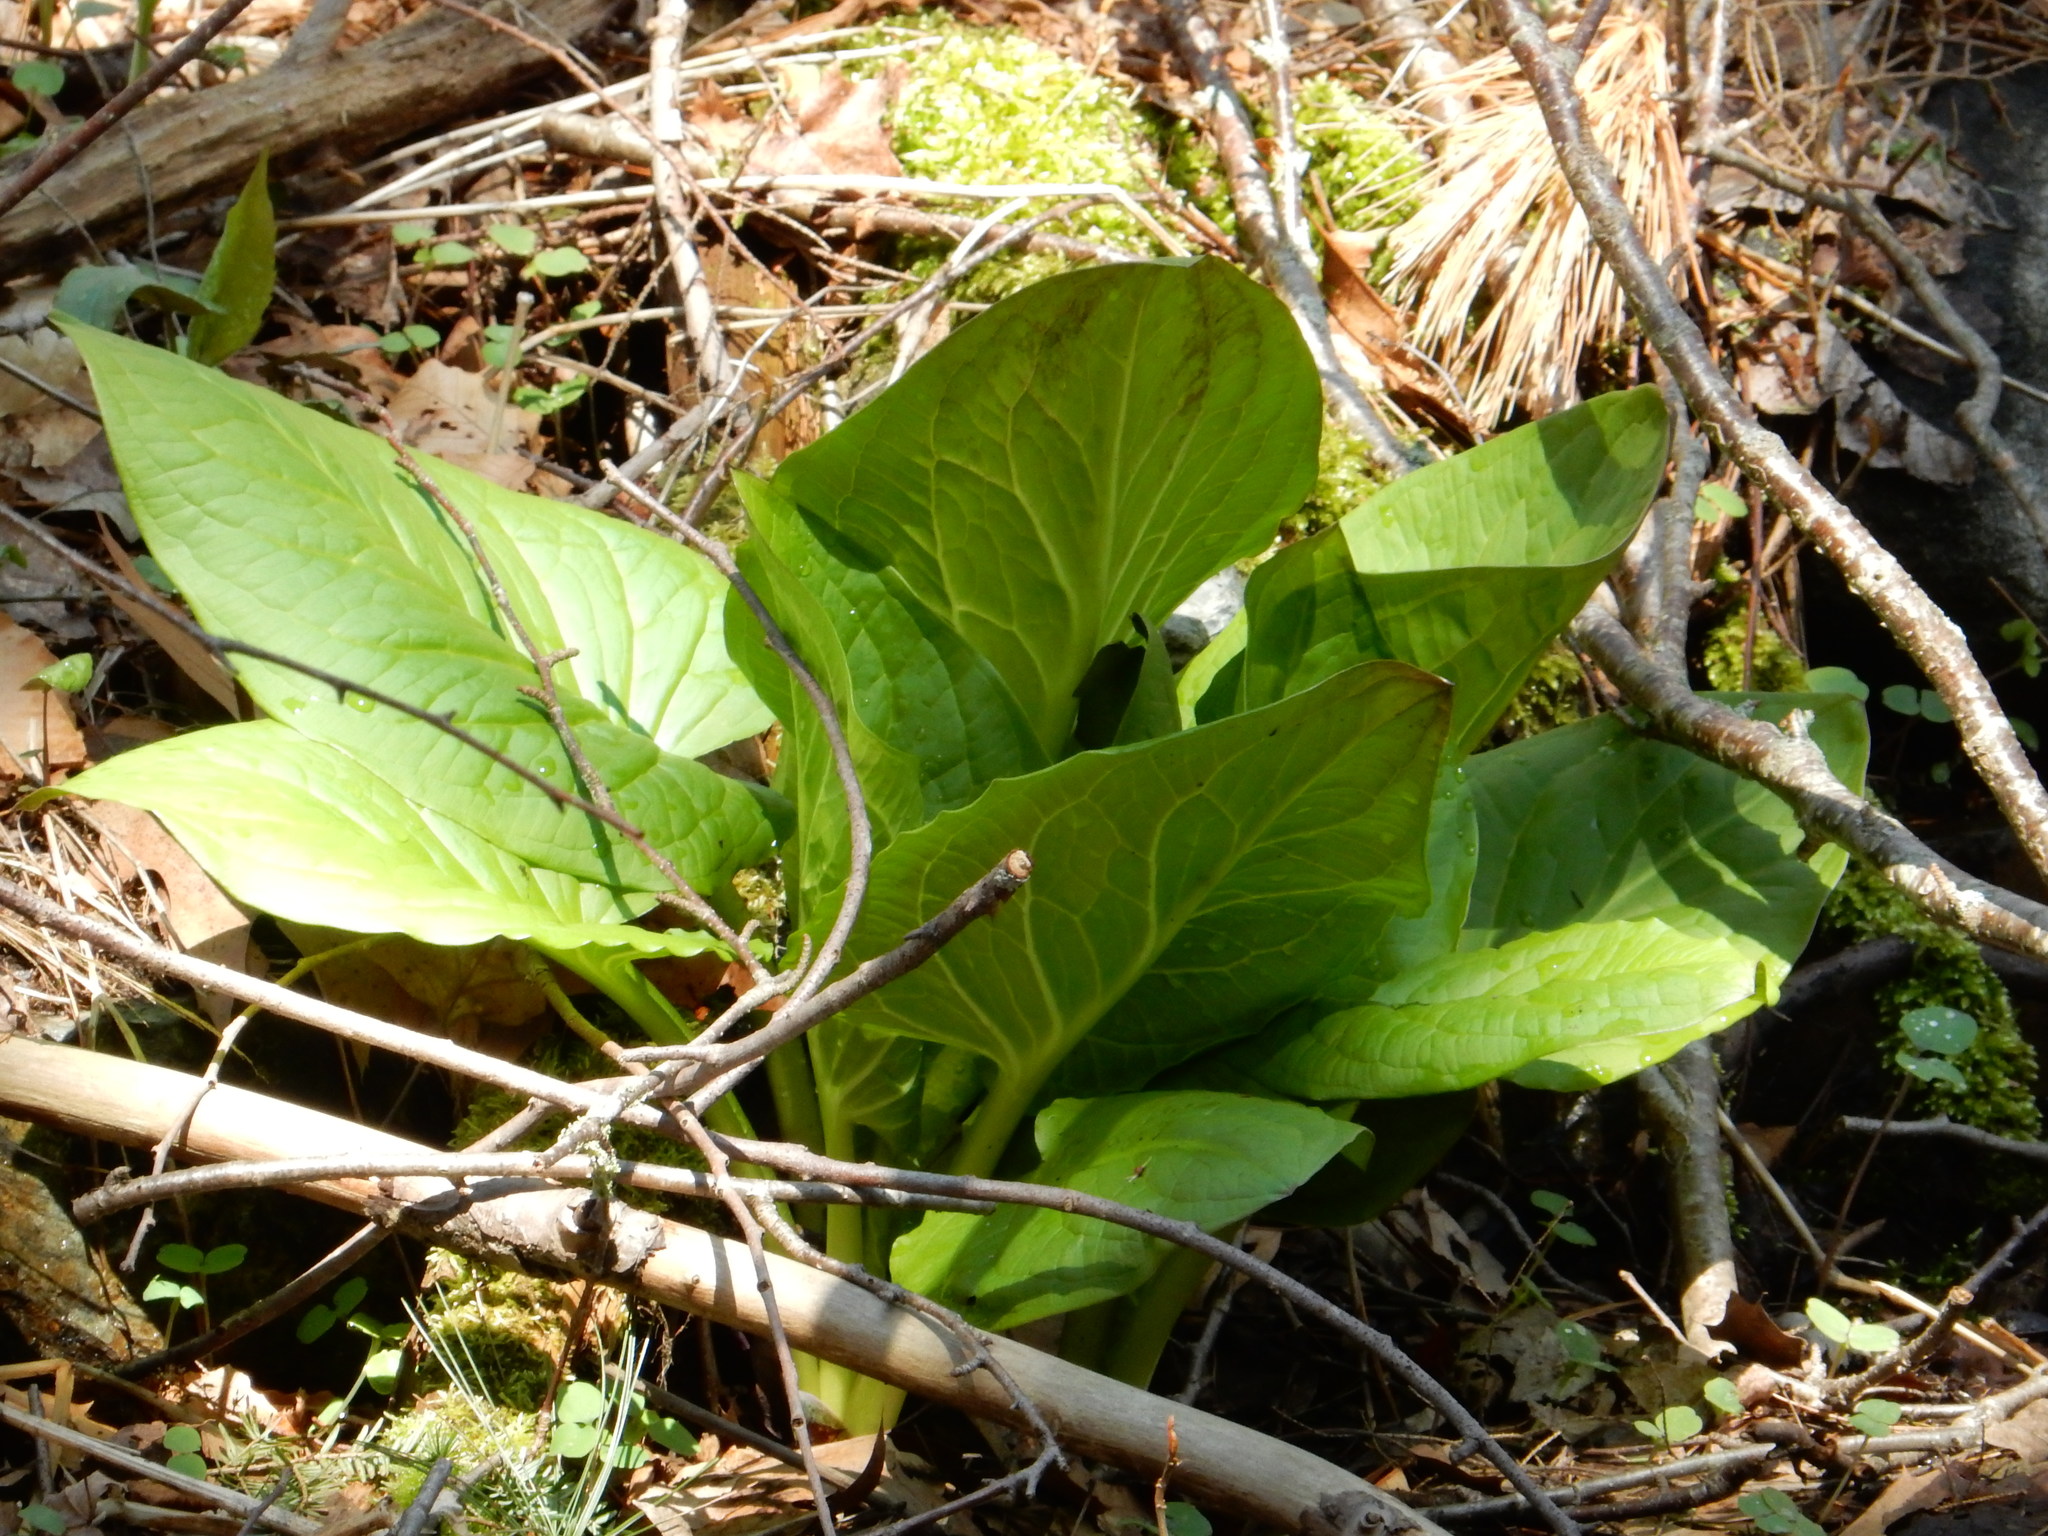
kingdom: Plantae
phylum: Tracheophyta
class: Liliopsida
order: Alismatales
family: Araceae
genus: Symplocarpus
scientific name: Symplocarpus foetidus
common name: Eastern skunk cabbage
